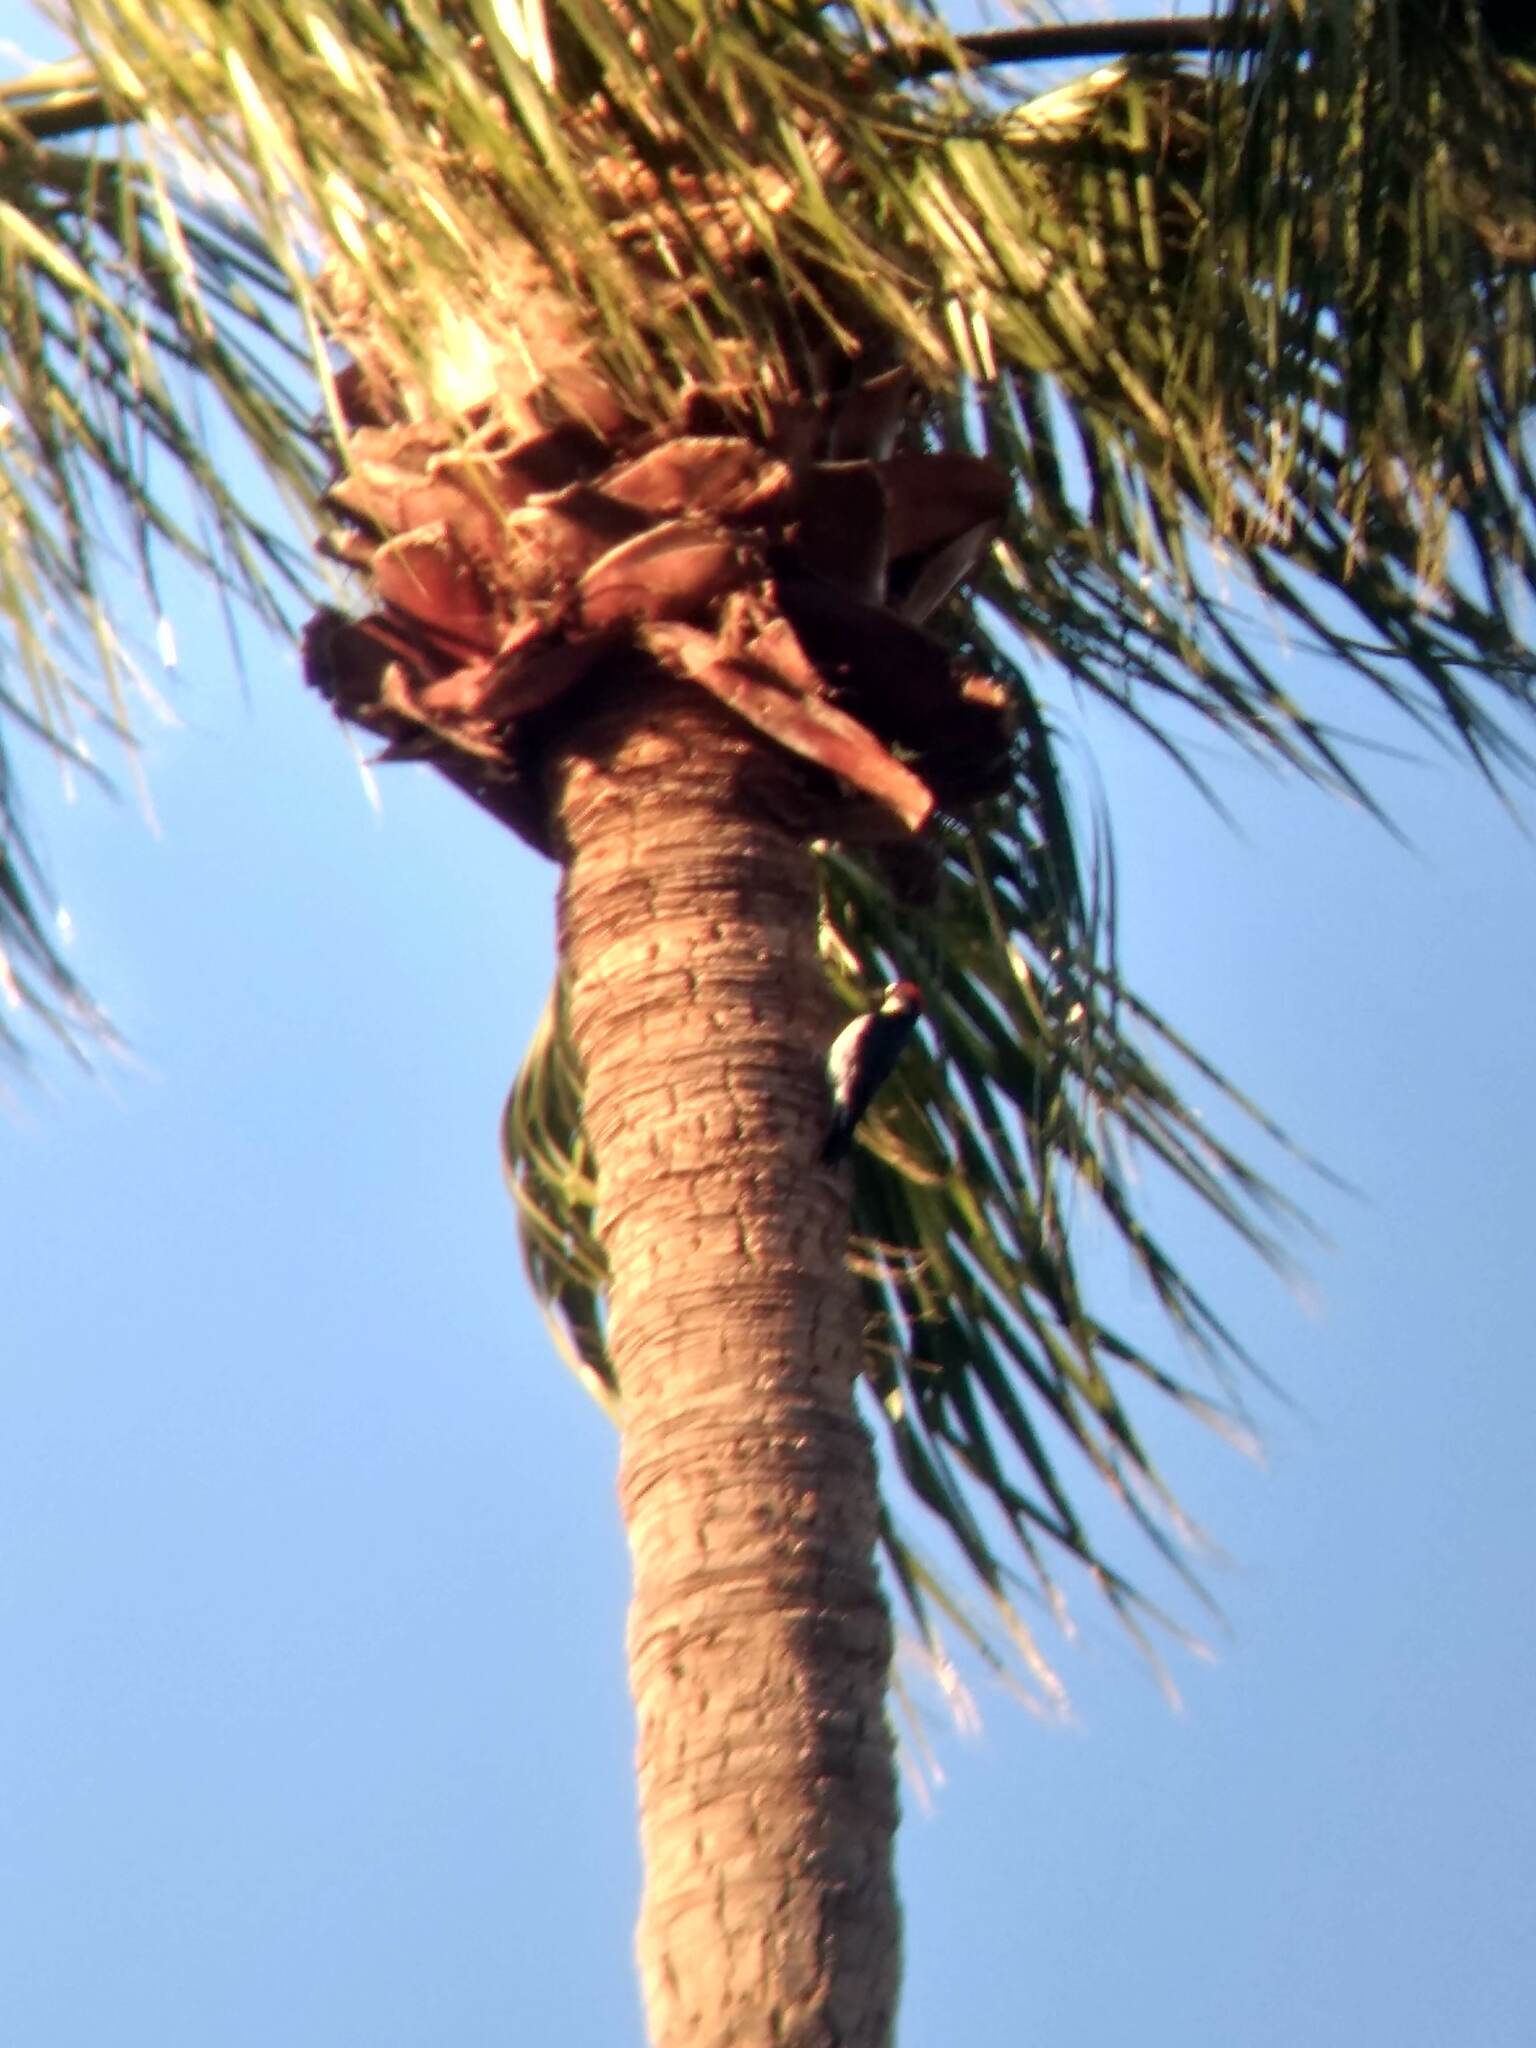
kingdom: Animalia
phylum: Chordata
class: Aves
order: Piciformes
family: Picidae
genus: Melanerpes
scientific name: Melanerpes formicivorus
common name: Acorn woodpecker
